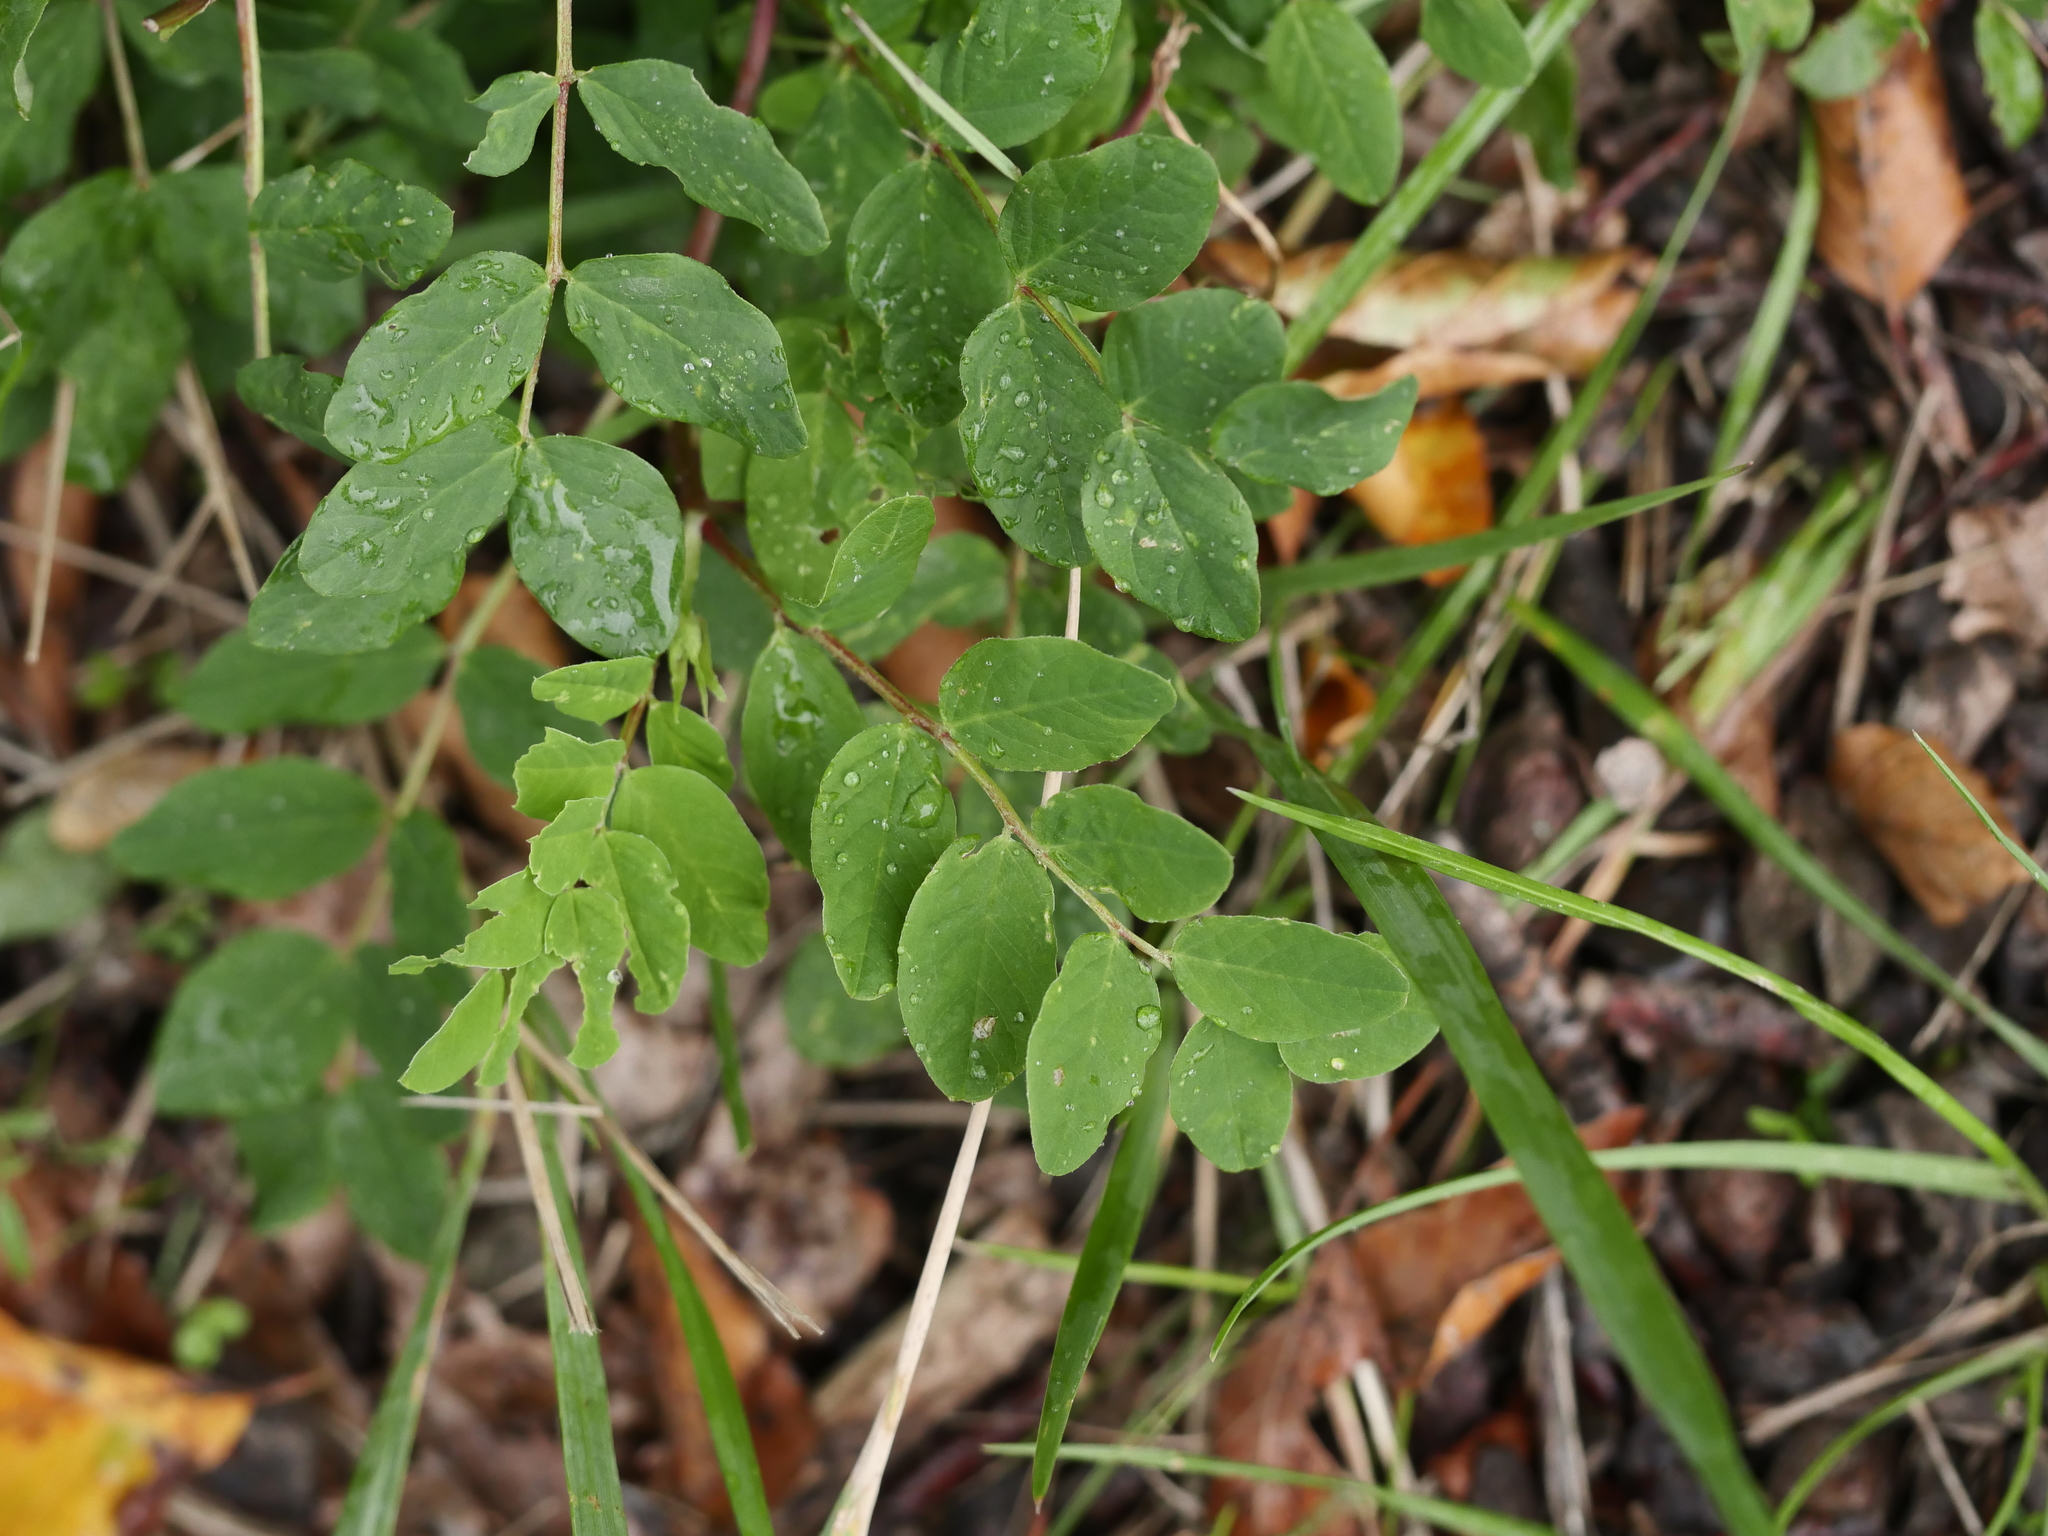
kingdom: Plantae
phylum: Tracheophyta
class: Magnoliopsida
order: Fabales
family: Fabaceae
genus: Astragalus
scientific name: Astragalus glycyphyllos
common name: Wild liquorice
